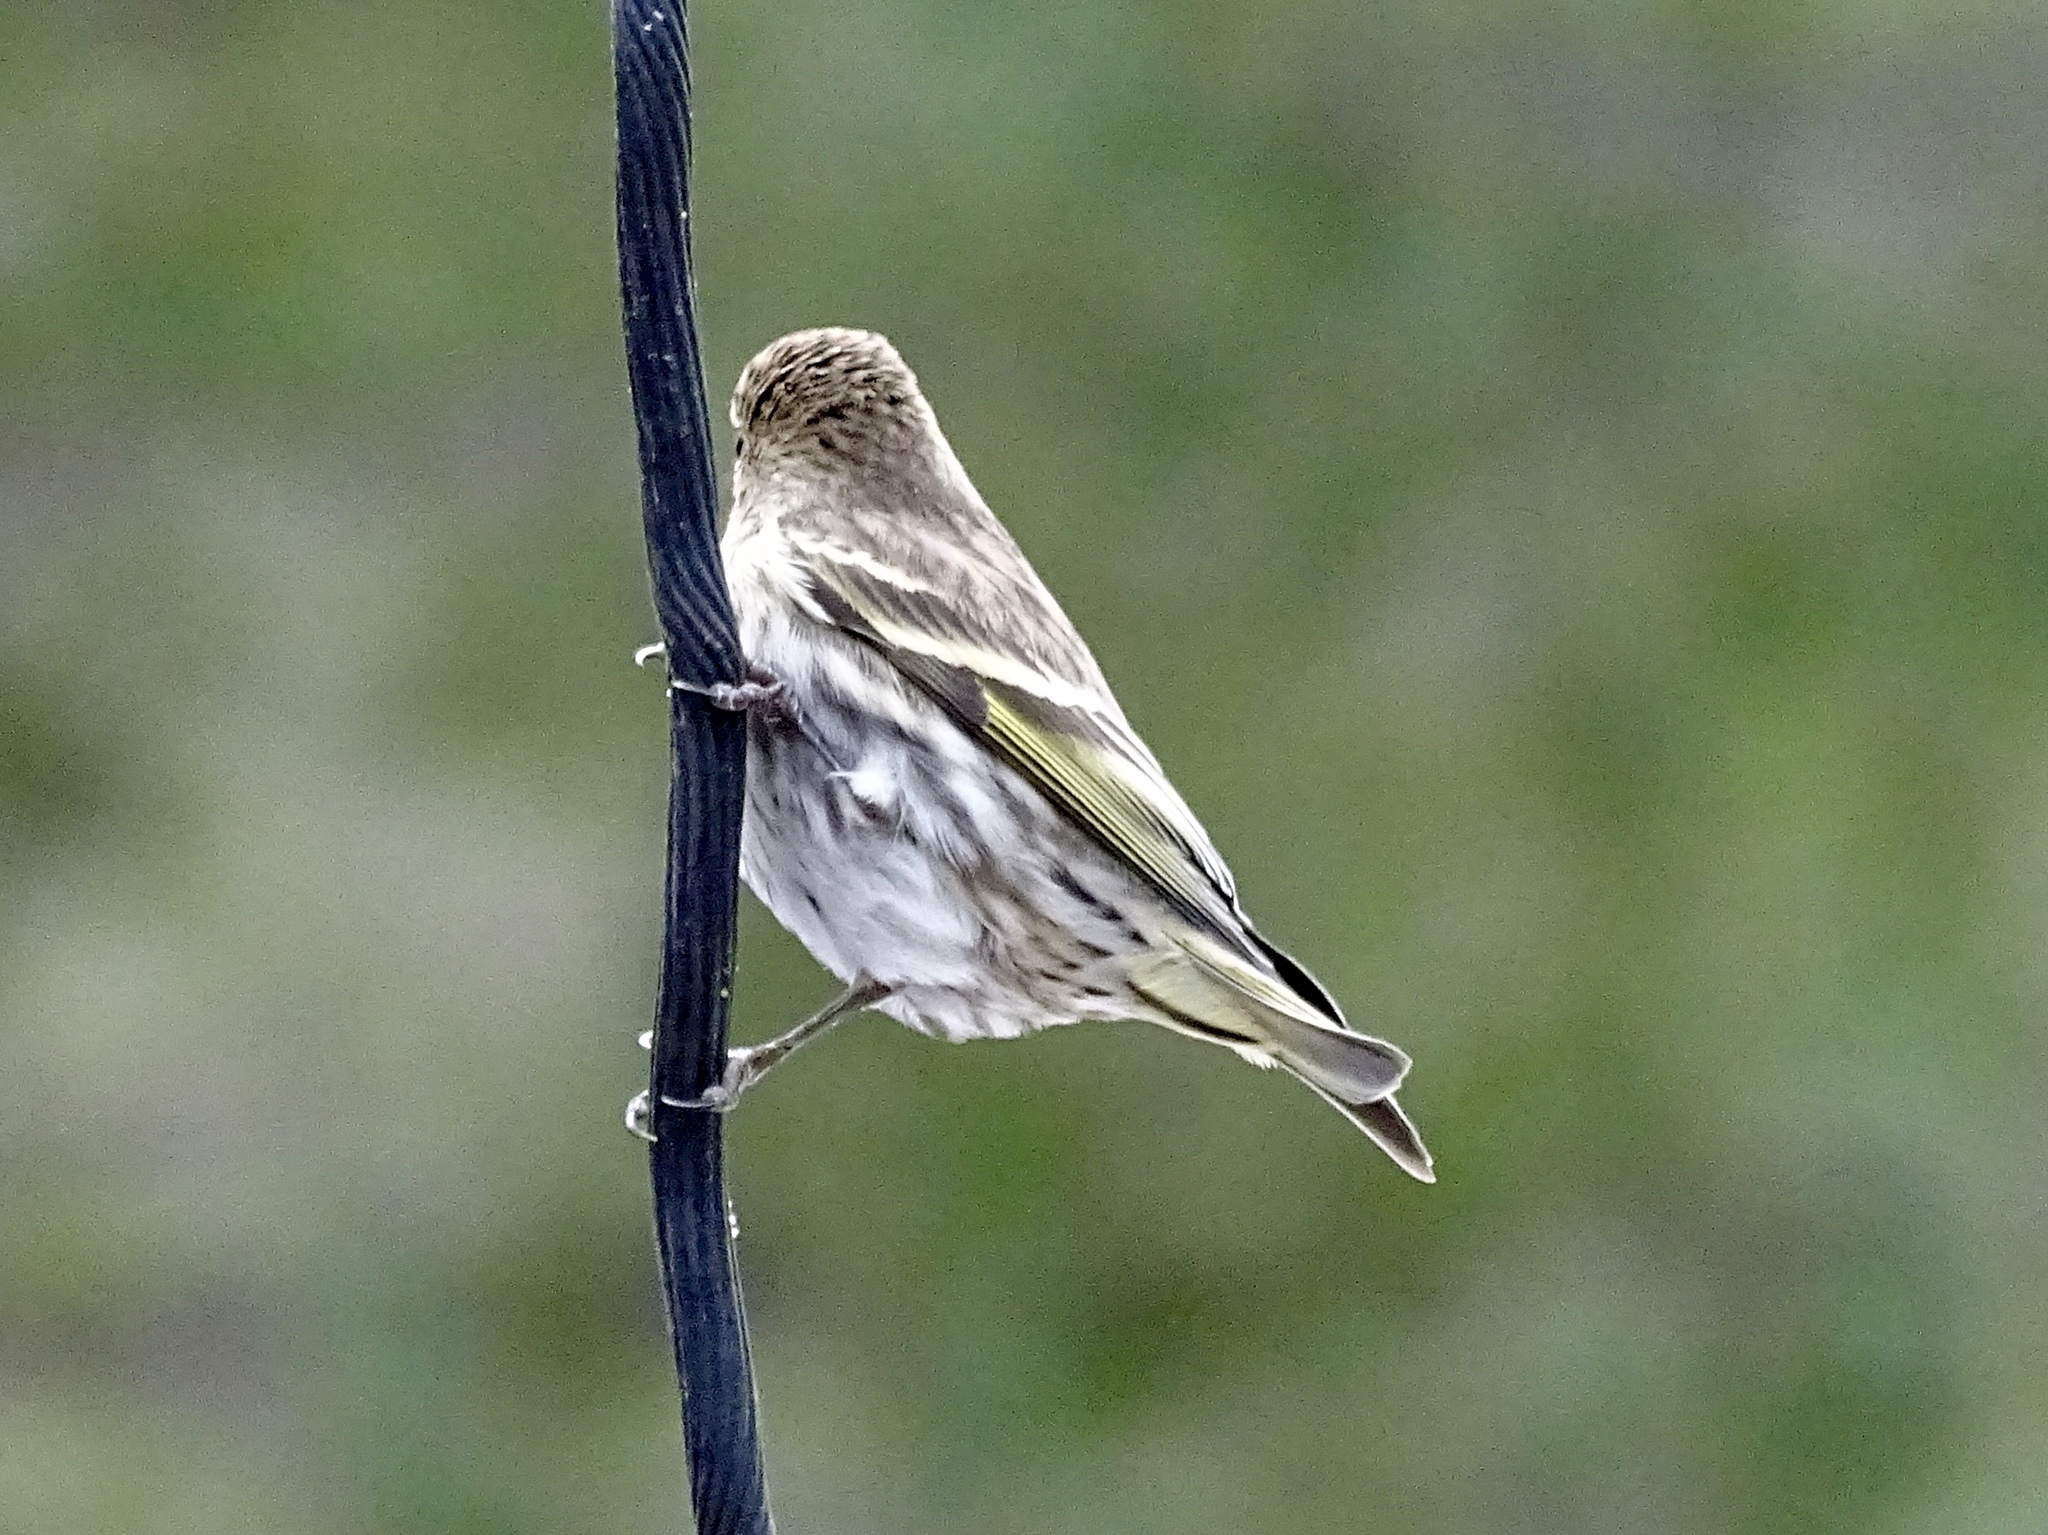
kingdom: Animalia
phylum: Chordata
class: Aves
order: Passeriformes
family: Fringillidae
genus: Spinus
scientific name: Spinus pinus
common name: Pine siskin
